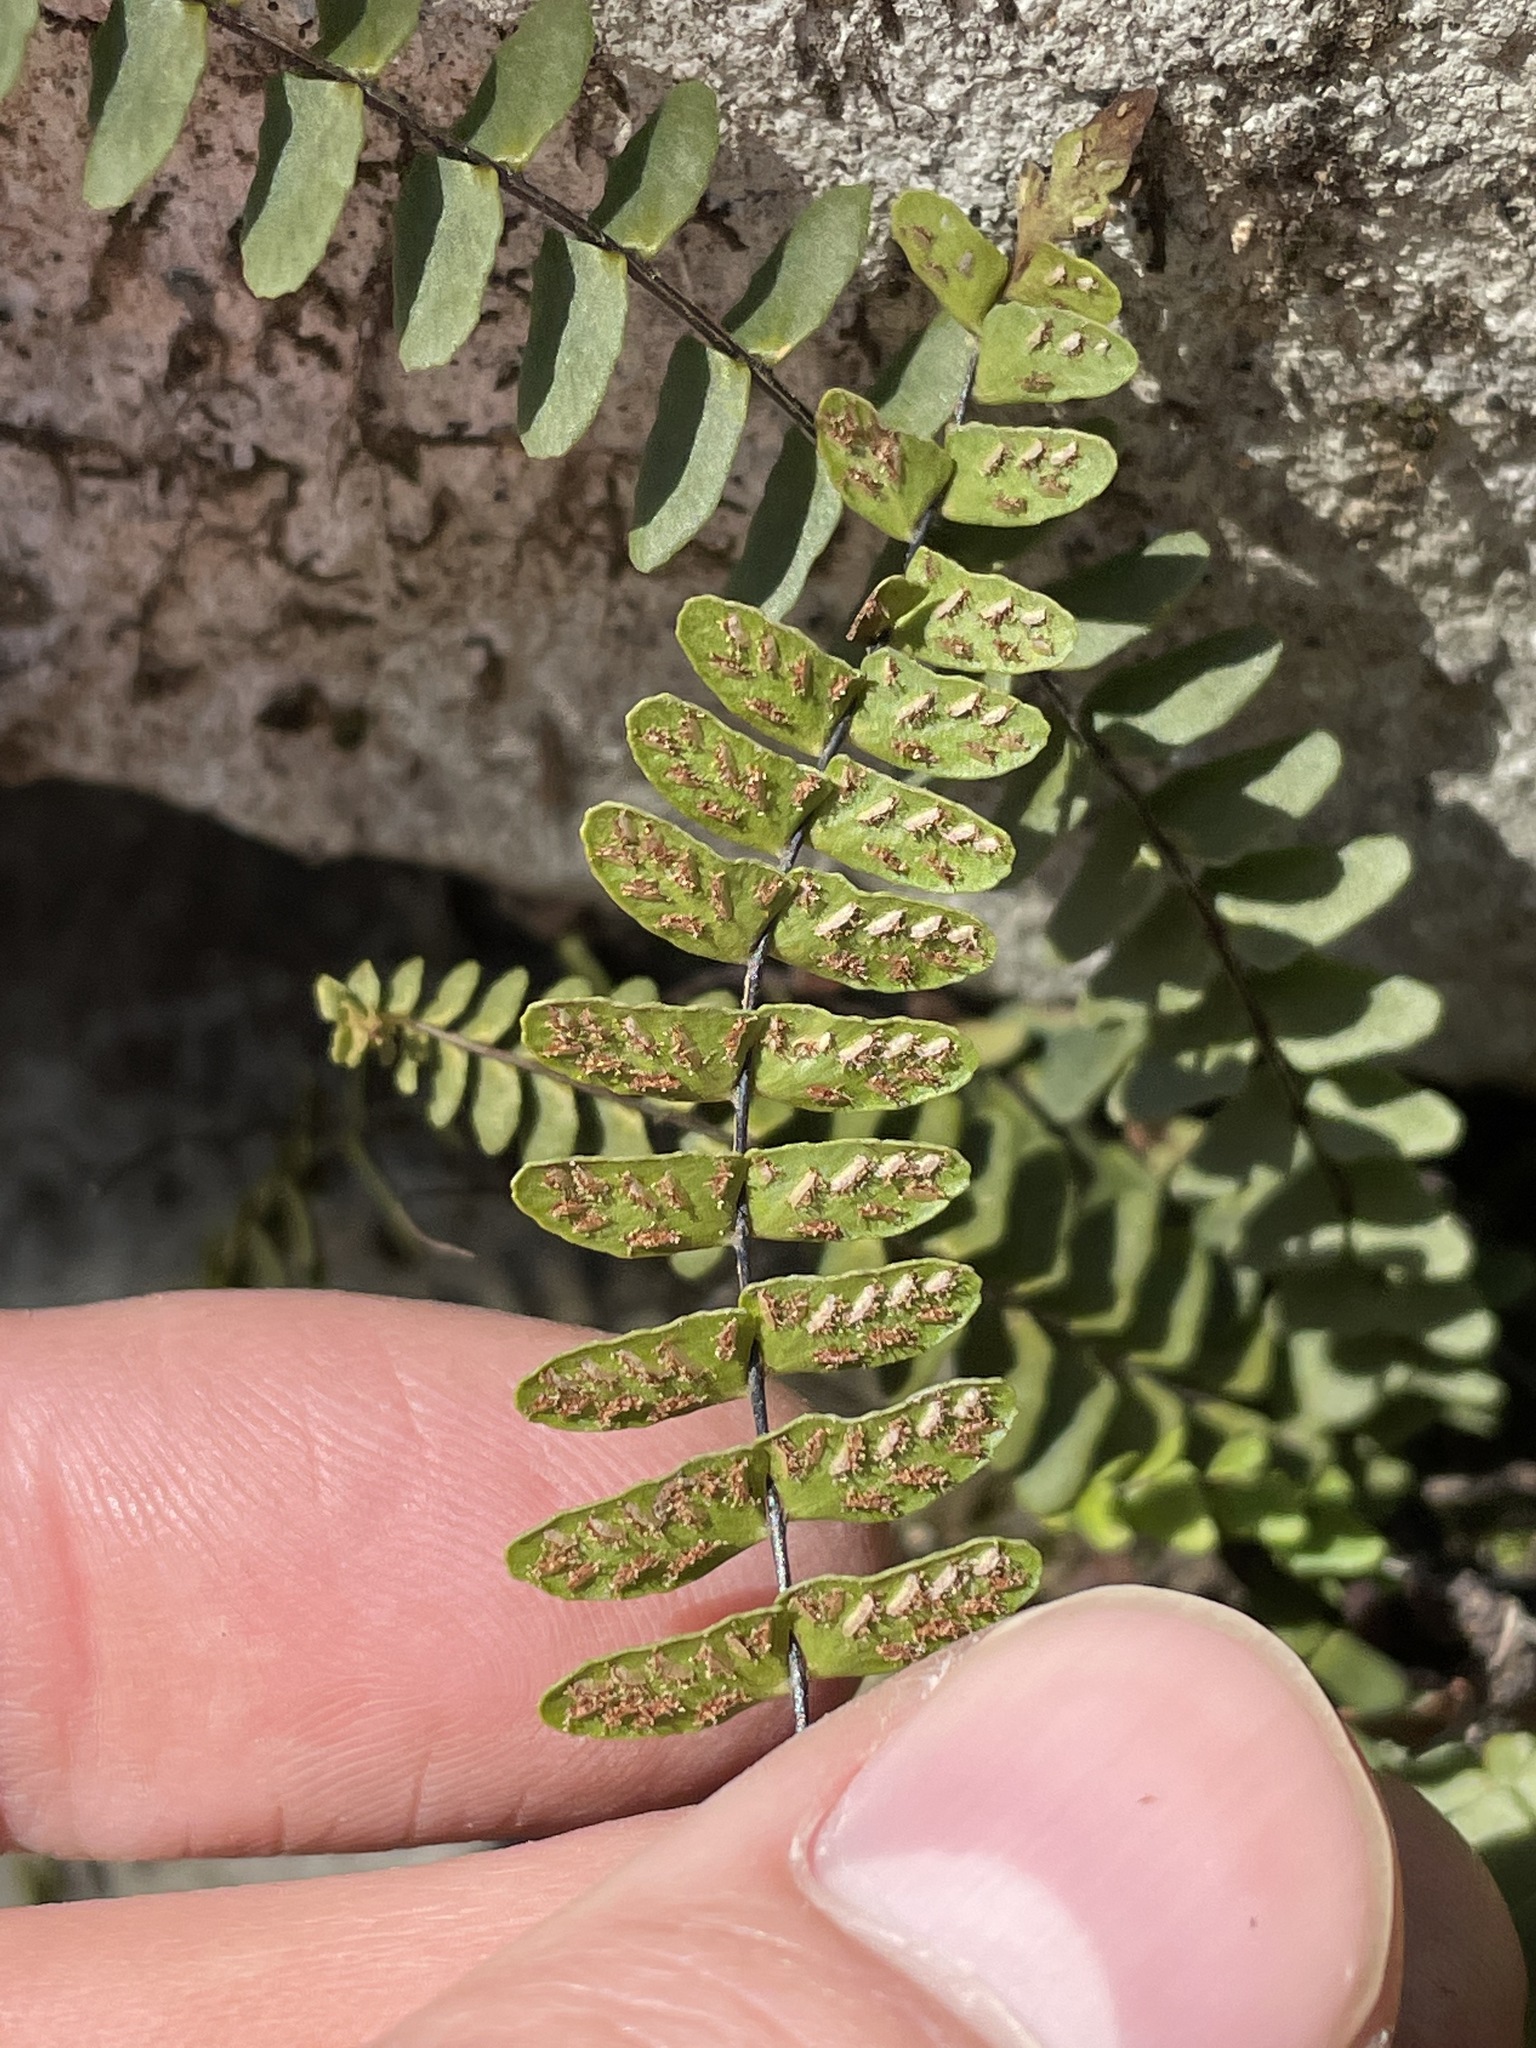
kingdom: Plantae
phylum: Tracheophyta
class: Polypodiopsida
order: Polypodiales
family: Aspleniaceae
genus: Asplenium
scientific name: Asplenium resiliens
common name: Blackstem spleenwort
